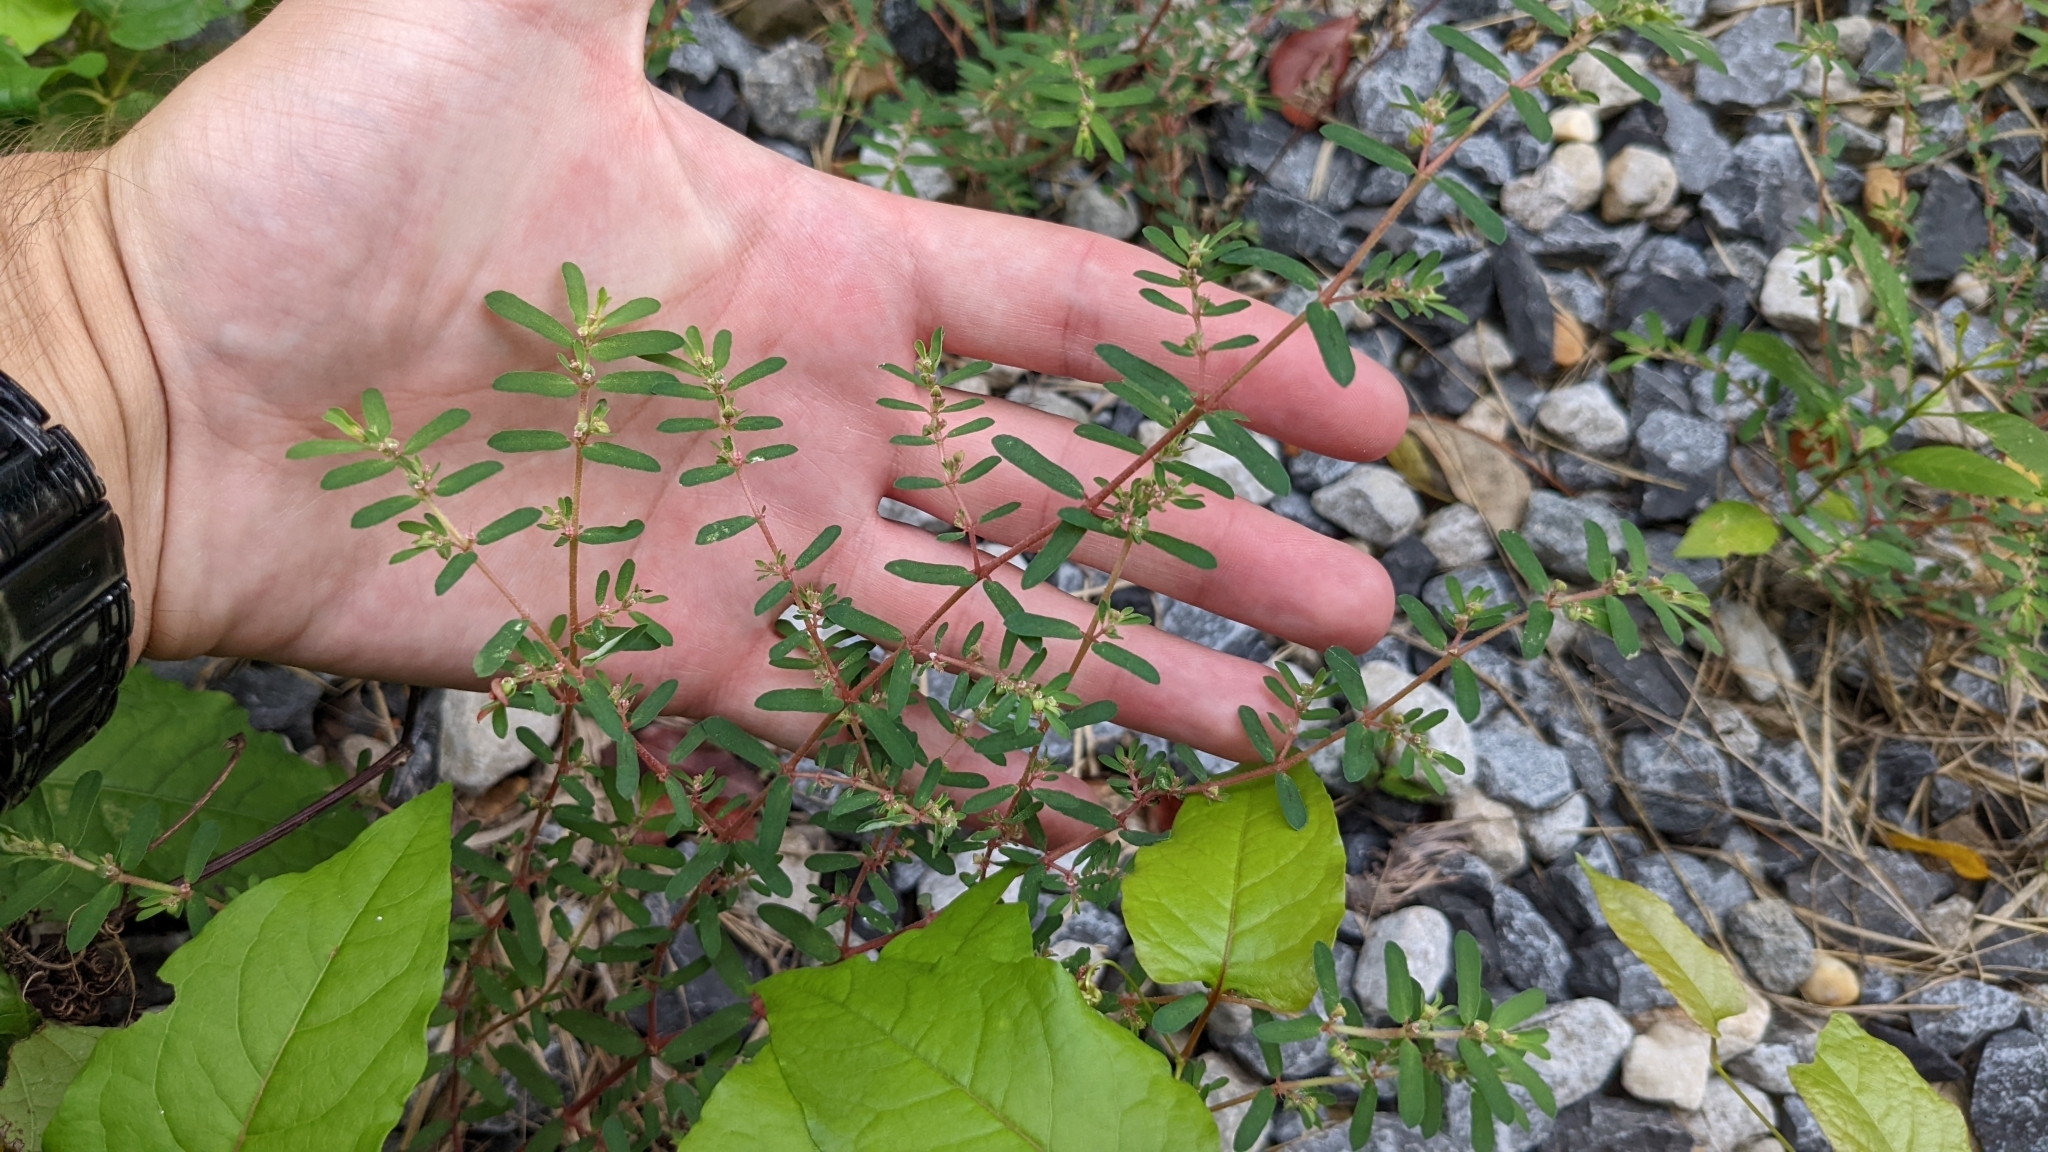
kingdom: Plantae
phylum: Tracheophyta
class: Magnoliopsida
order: Malpighiales
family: Euphorbiaceae
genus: Euphorbia
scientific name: Euphorbia maculata
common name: Spotted spurge
